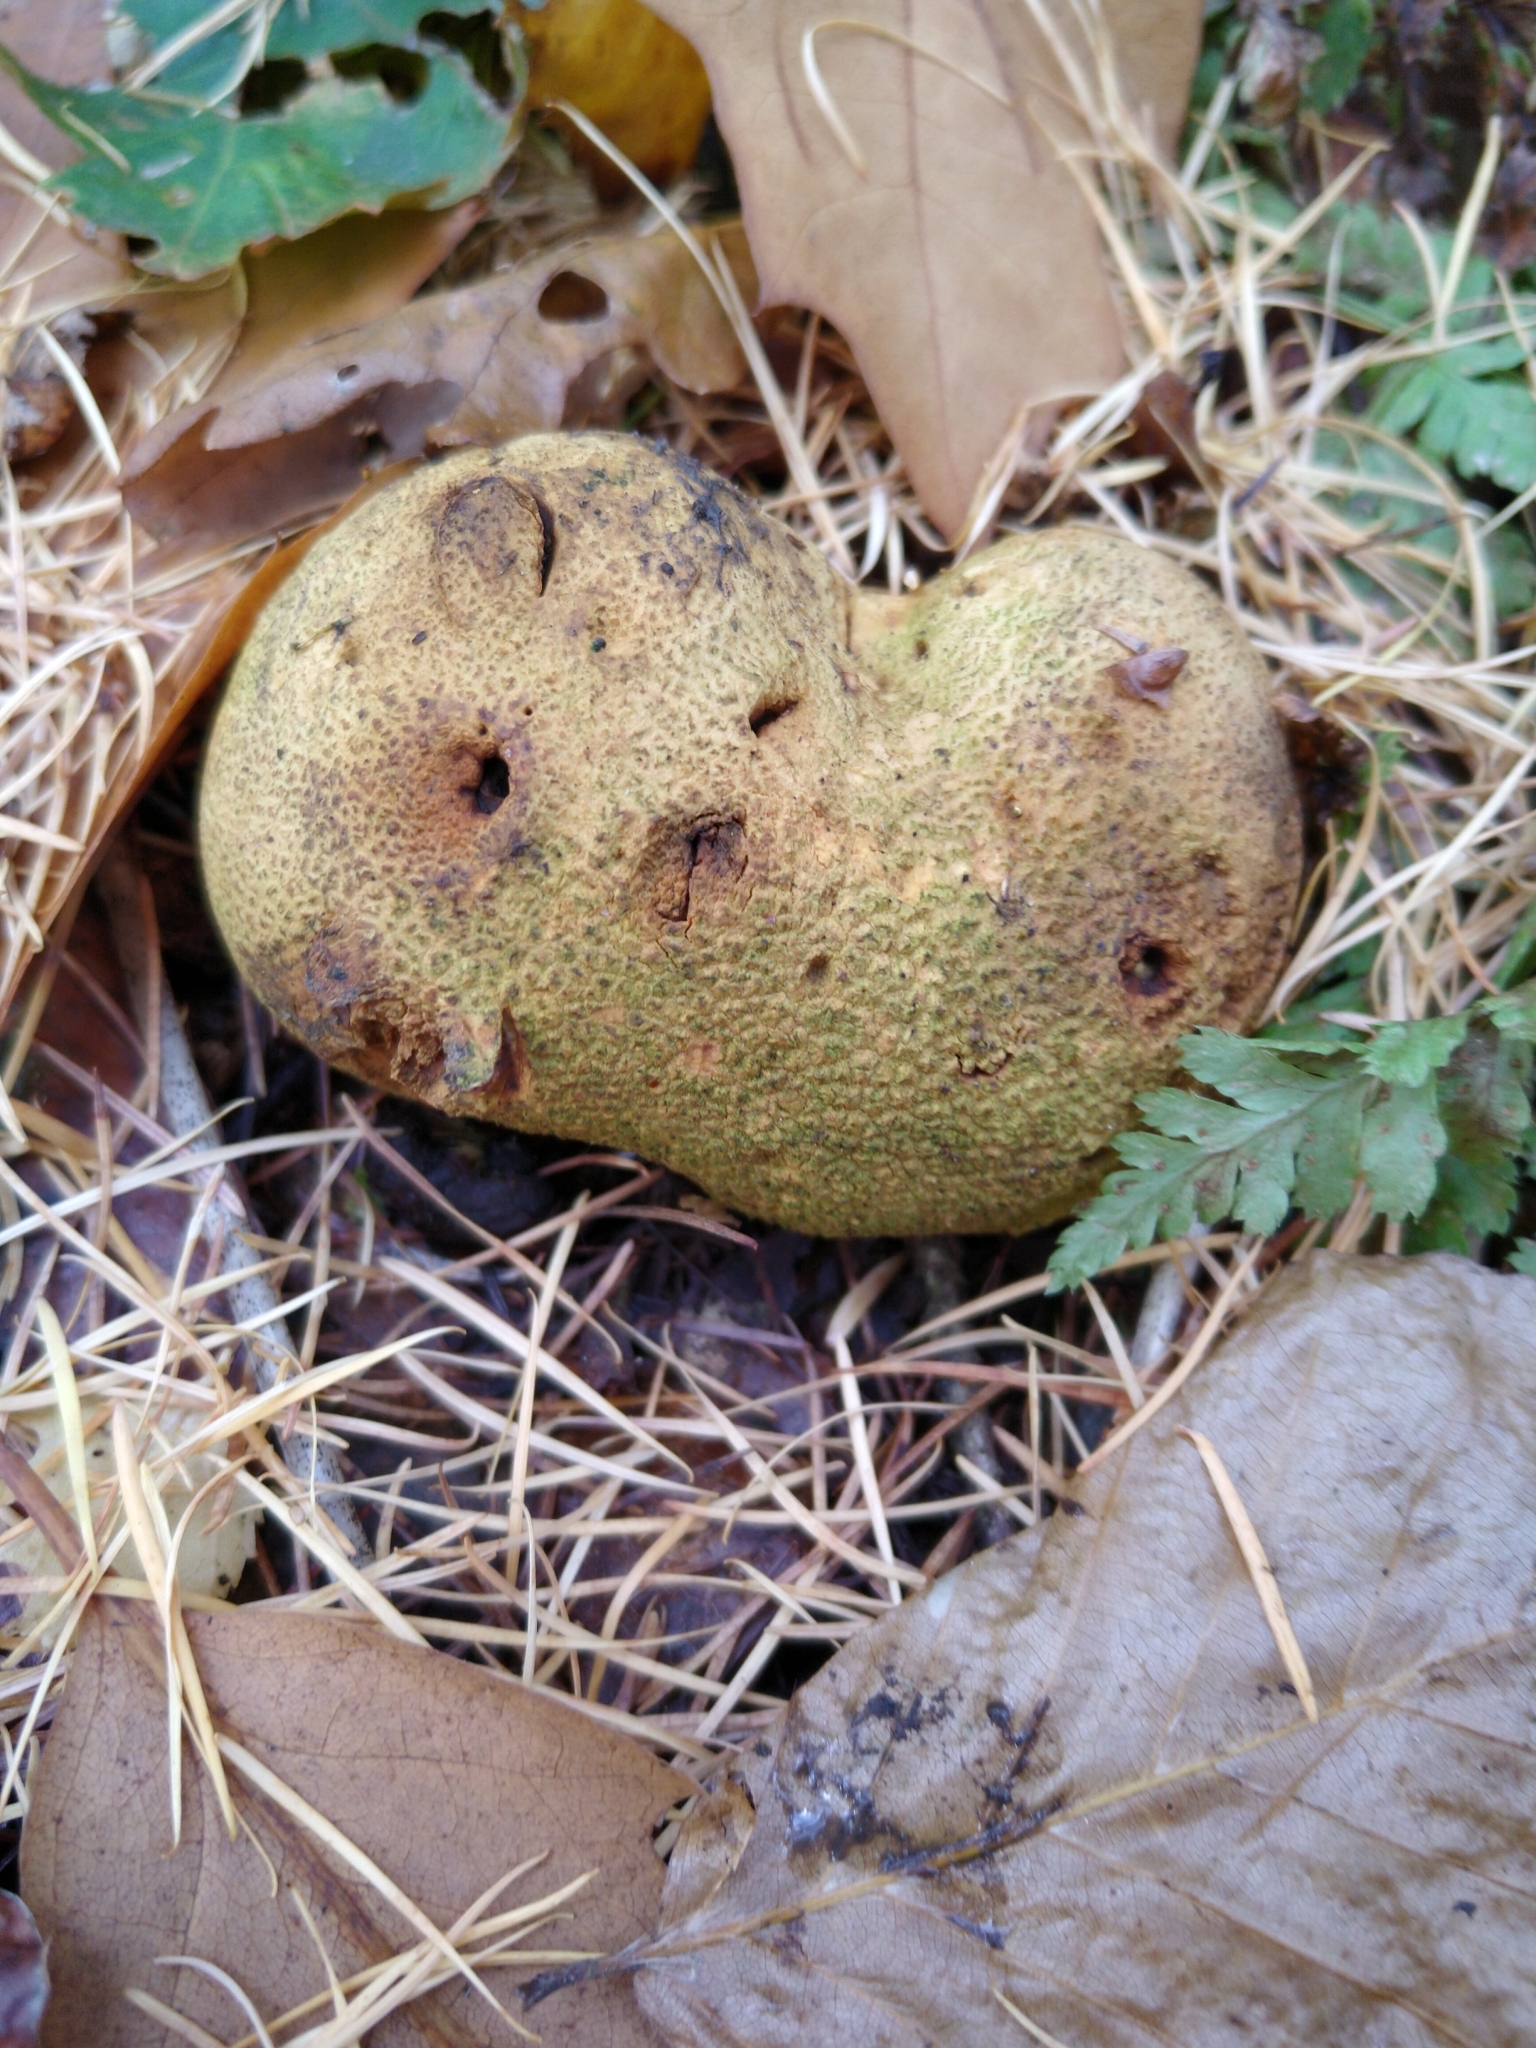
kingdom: Fungi
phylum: Basidiomycota
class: Agaricomycetes
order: Boletales
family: Sclerodermataceae
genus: Scleroderma
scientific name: Scleroderma citrinum
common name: Common earthball
